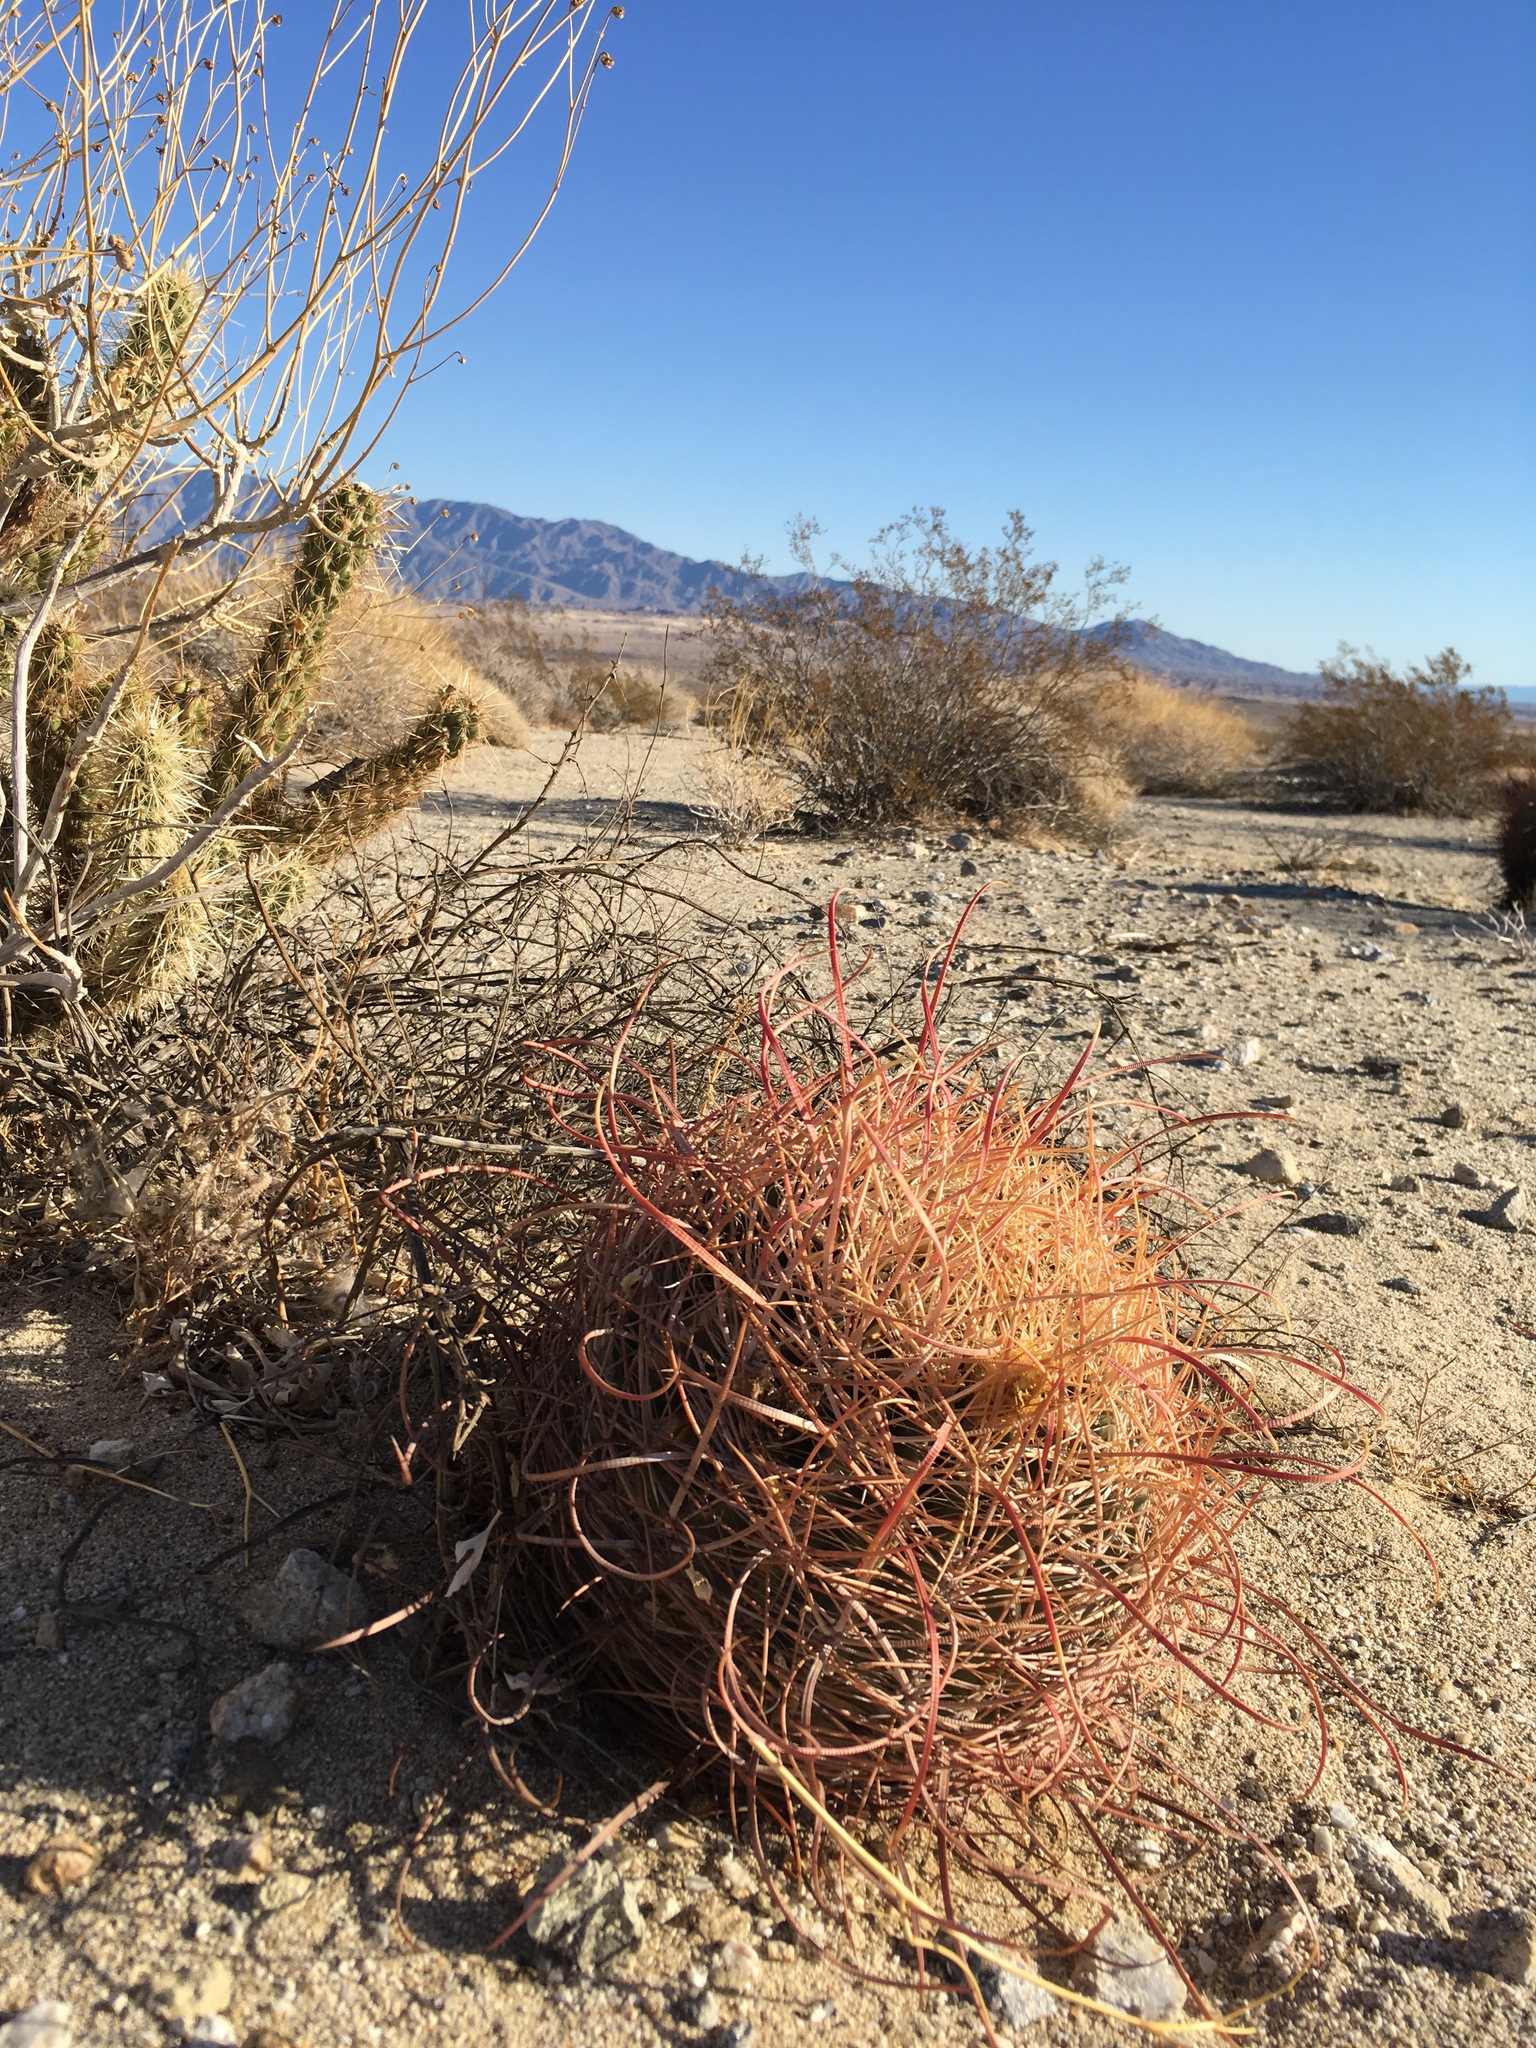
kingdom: Plantae
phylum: Tracheophyta
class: Magnoliopsida
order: Caryophyllales
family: Cactaceae
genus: Ferocactus
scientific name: Ferocactus cylindraceus
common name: California barrel cactus
